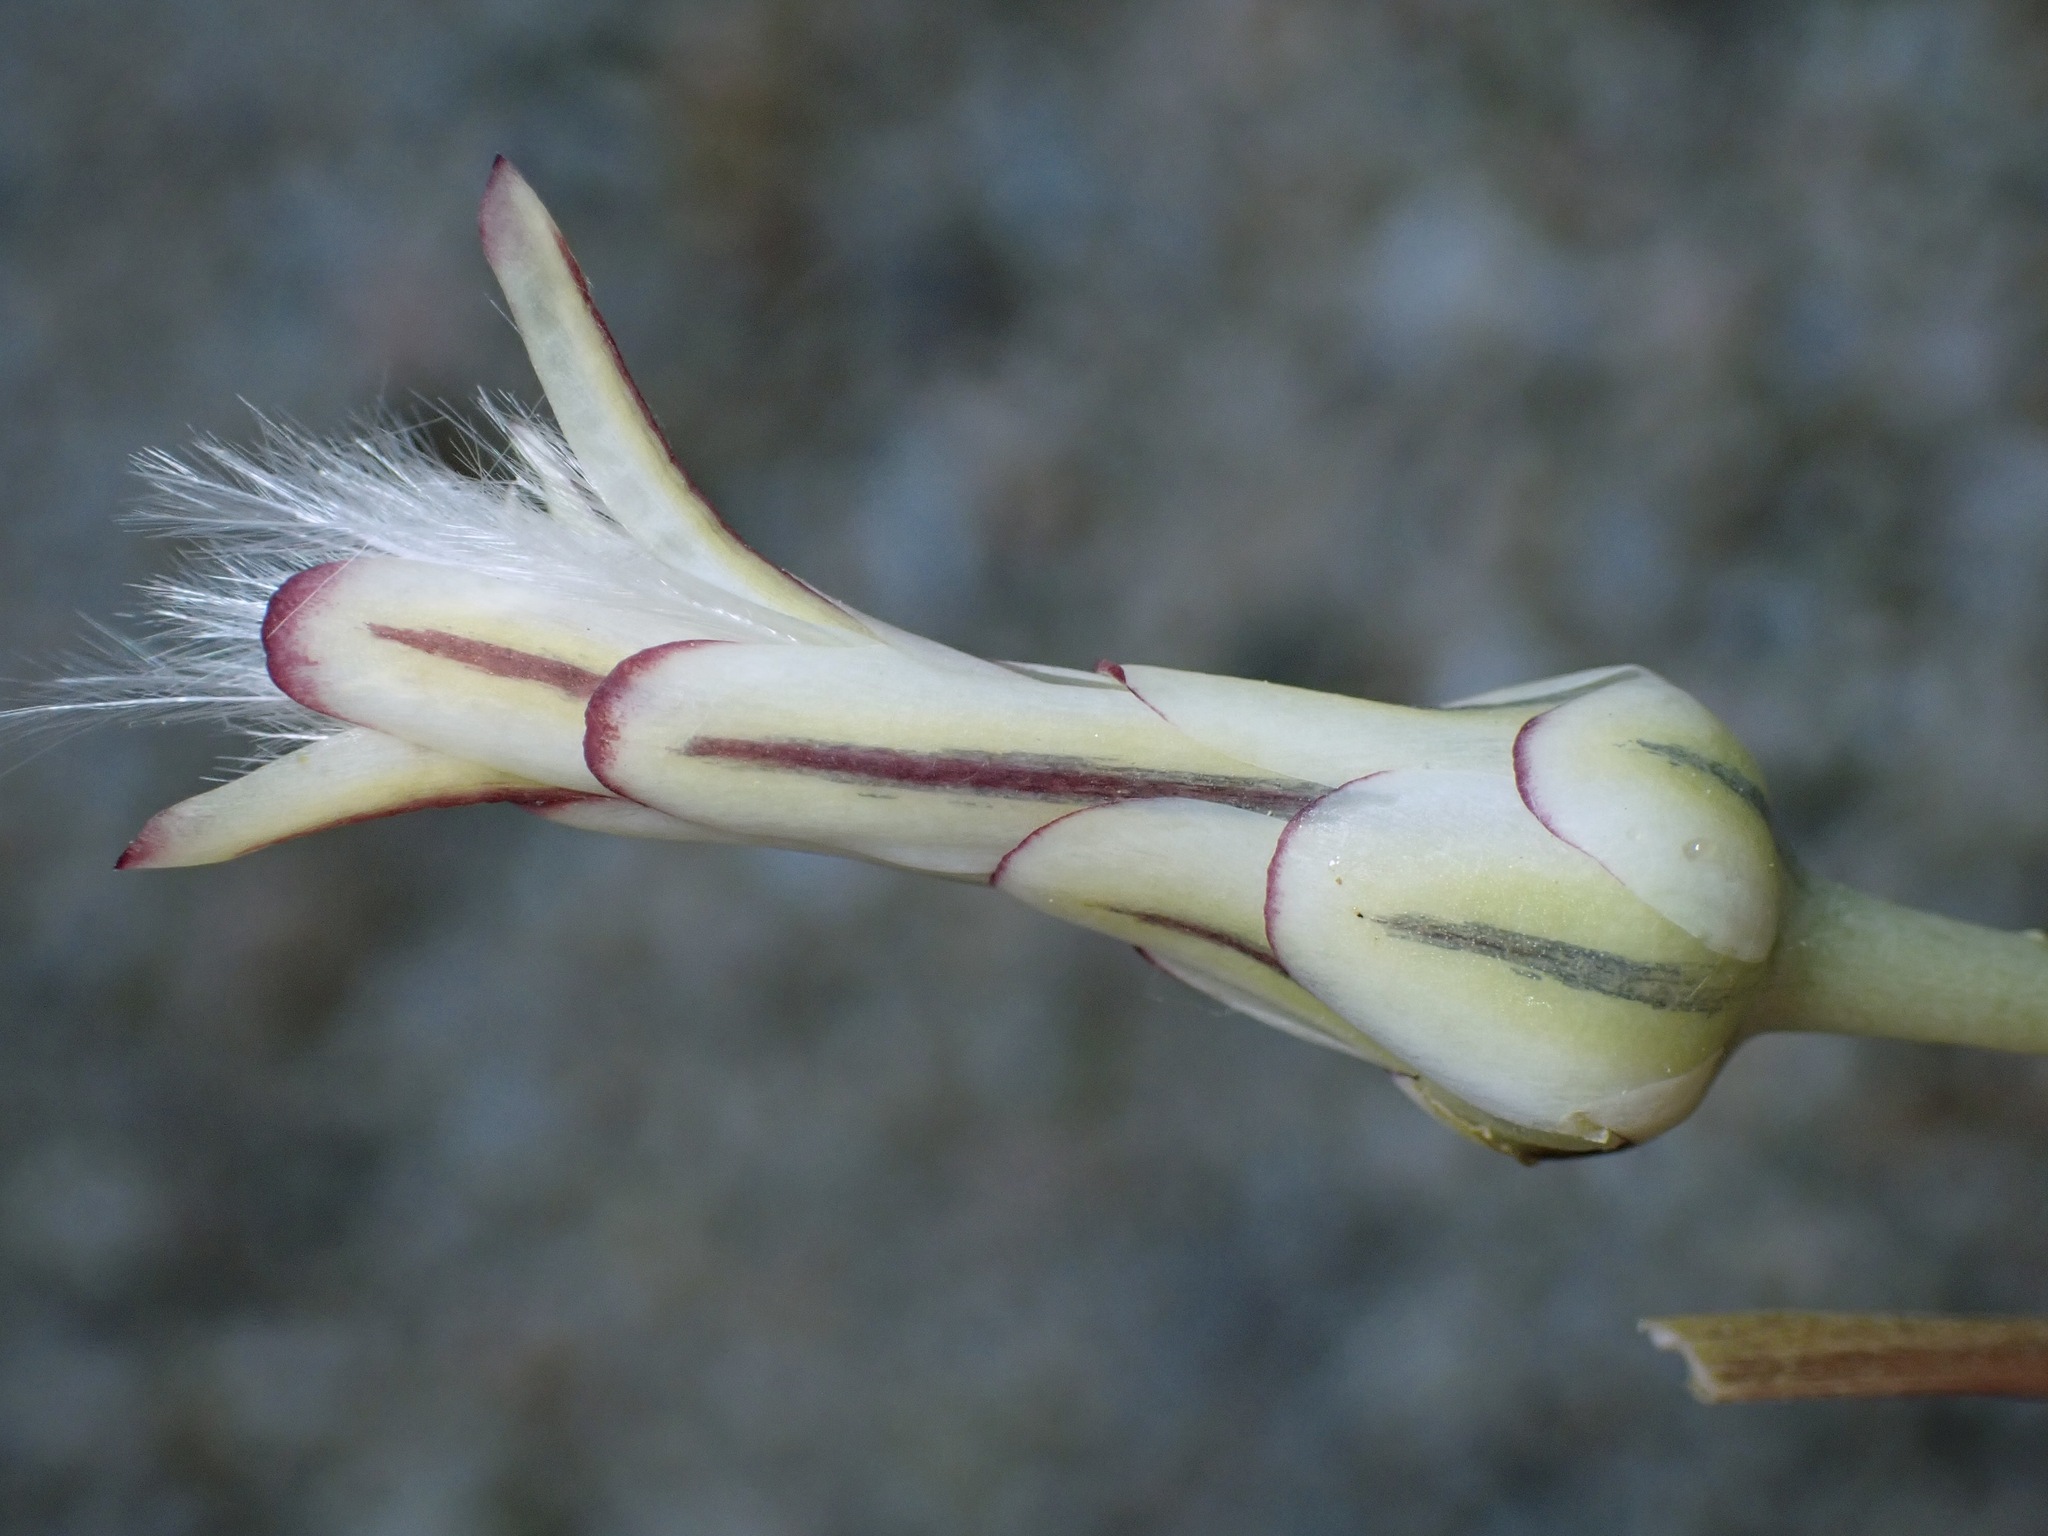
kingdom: Plantae
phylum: Tracheophyta
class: Magnoliopsida
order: Asterales
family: Asteraceae
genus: Anisocoma
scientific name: Anisocoma acaulis
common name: Scalebud
